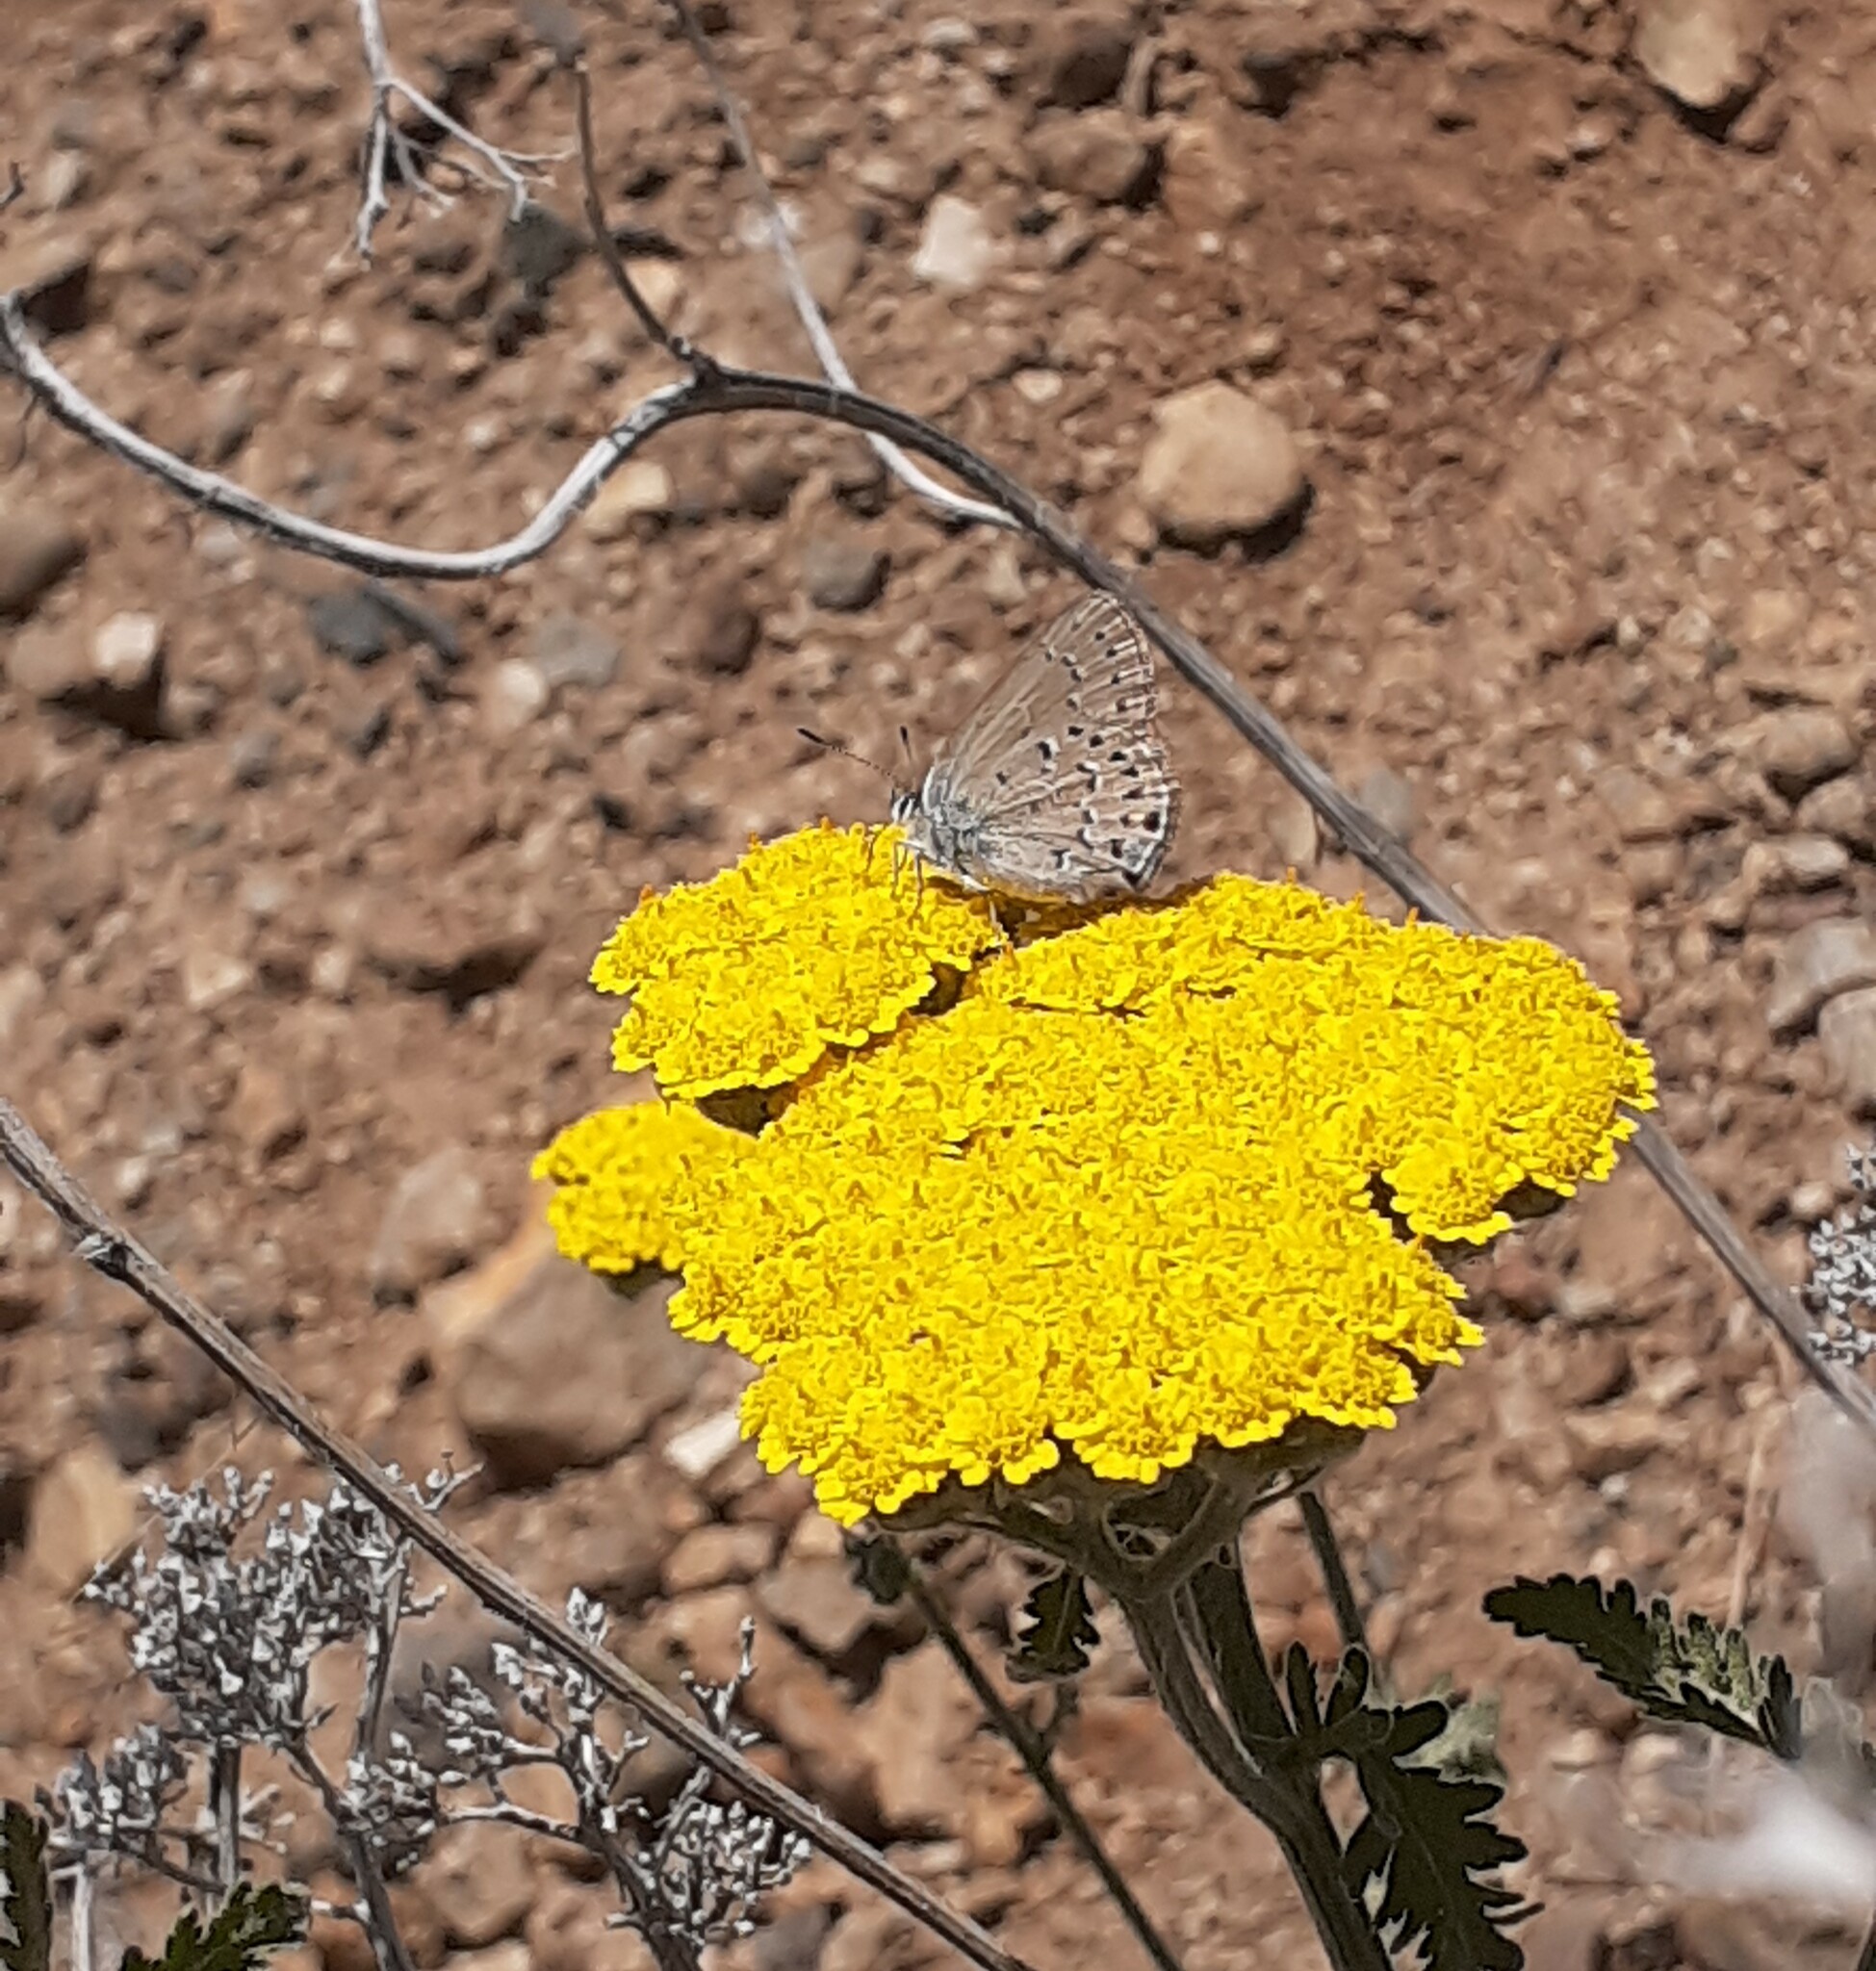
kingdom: Animalia
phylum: Arthropoda
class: Insecta
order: Lepidoptera
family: Lycaenidae
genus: Satyrium
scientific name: Satyrium behrii
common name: Behr's hairstreak
